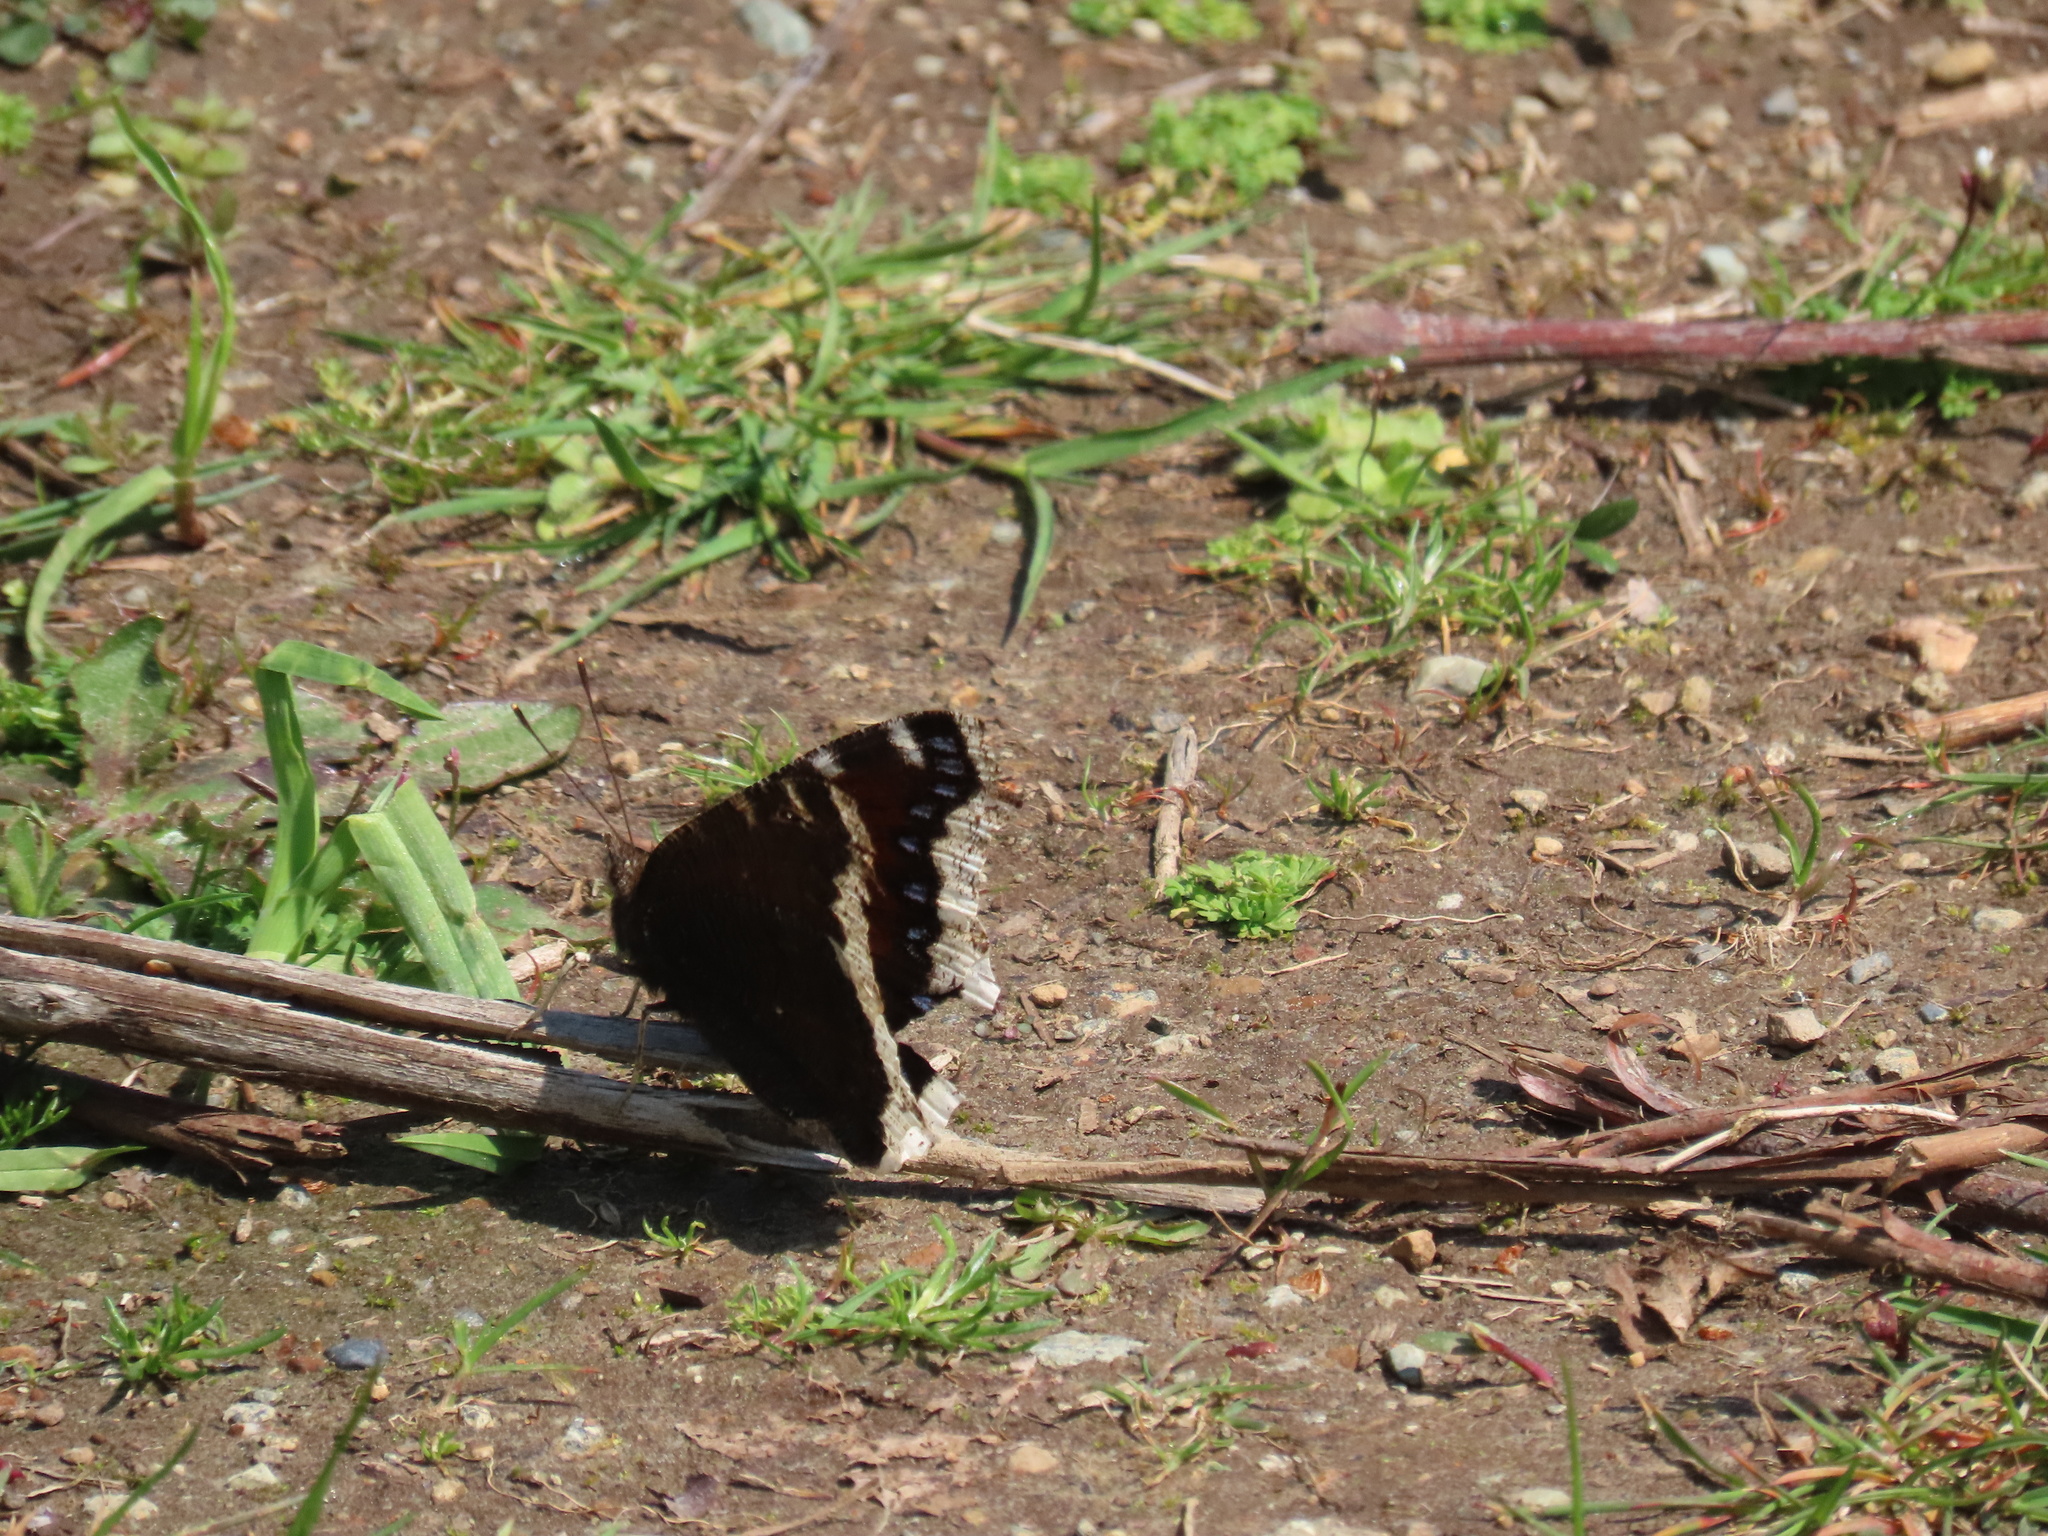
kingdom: Animalia
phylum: Arthropoda
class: Insecta
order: Lepidoptera
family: Nymphalidae
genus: Nymphalis
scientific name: Nymphalis antiopa
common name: Camberwell beauty
